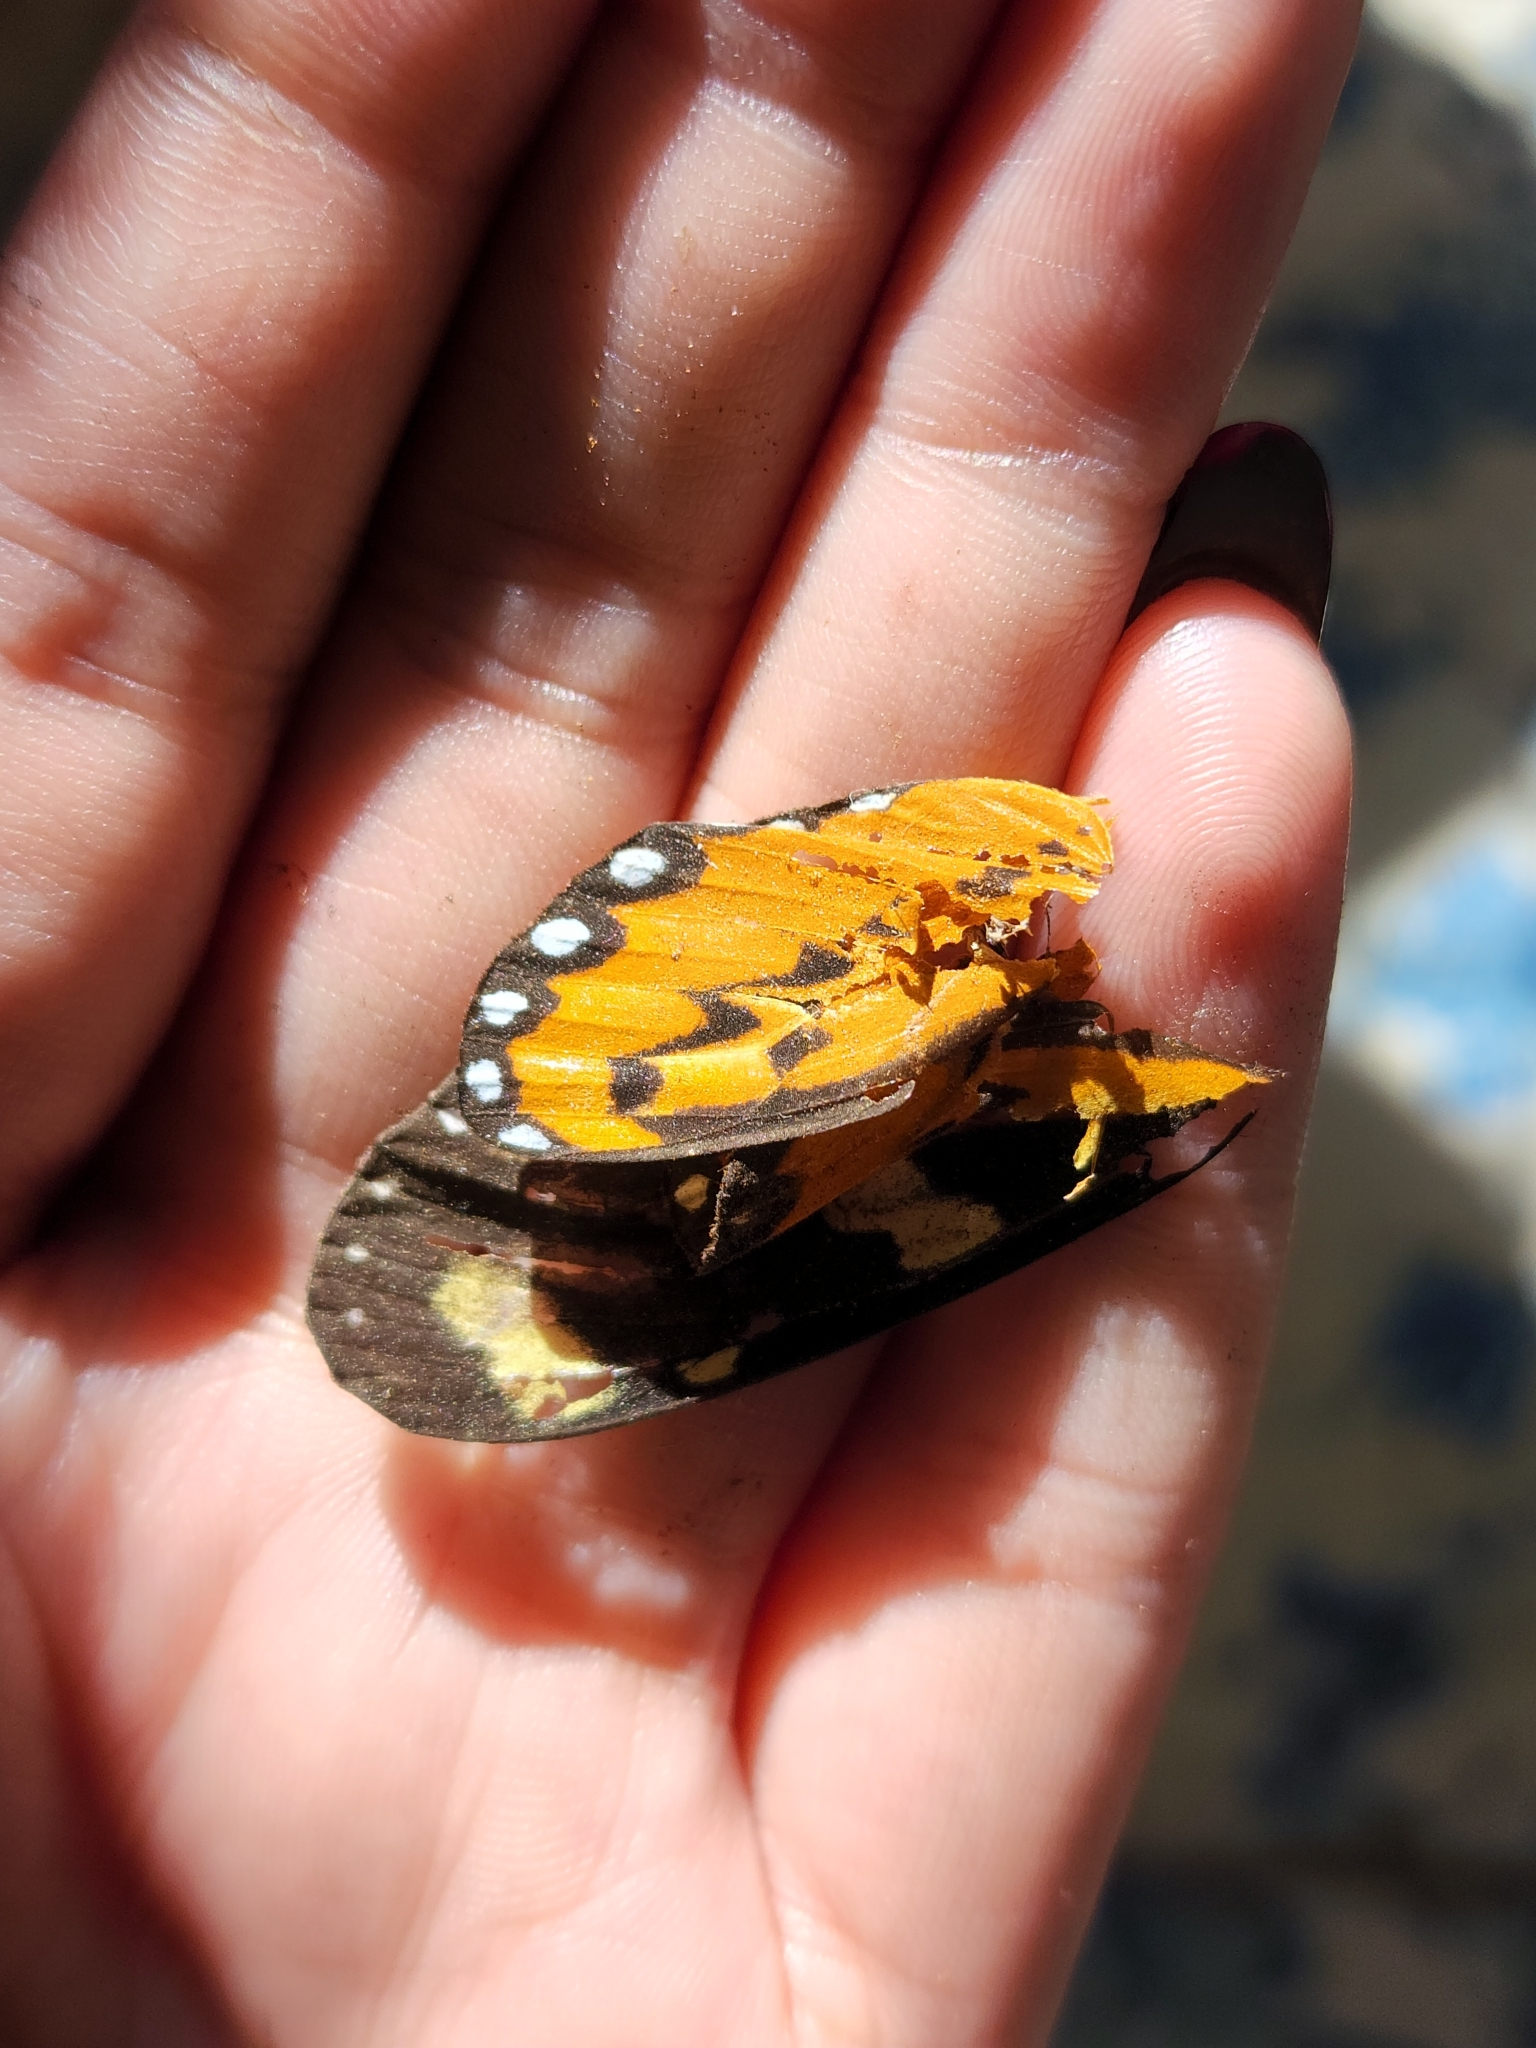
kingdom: Animalia
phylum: Arthropoda
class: Insecta
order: Lepidoptera
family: Nymphalidae
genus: Mechanitis
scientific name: Mechanitis lysimnia
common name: Lysimnia tigerwing
